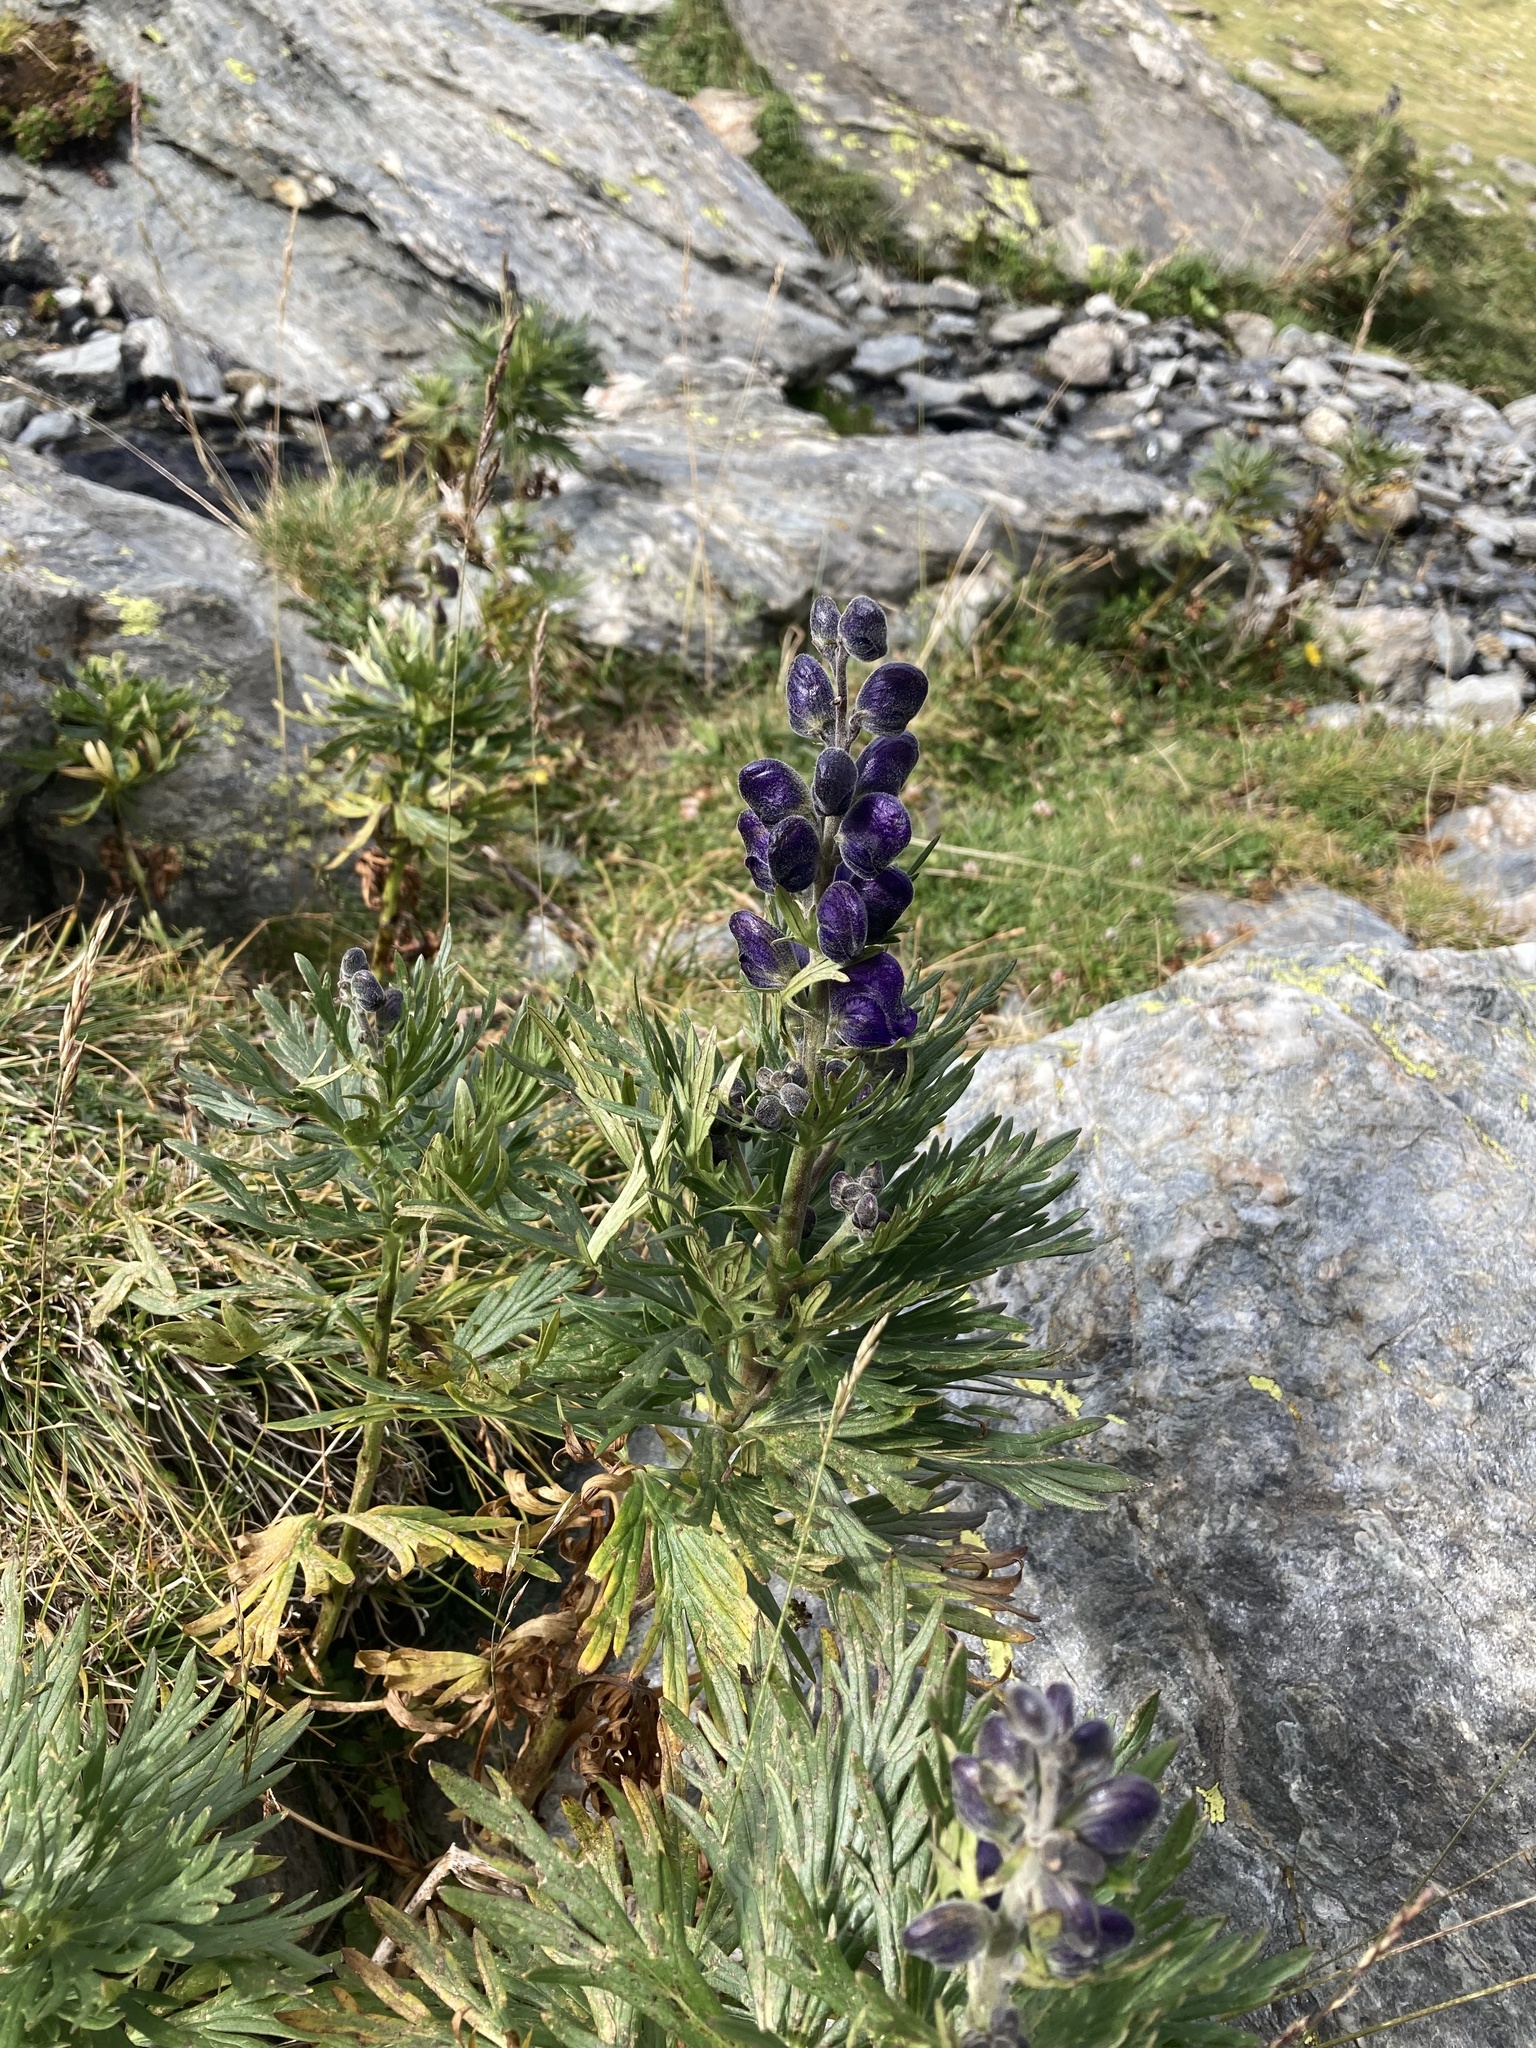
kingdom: Plantae
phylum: Tracheophyta
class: Magnoliopsida
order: Ranunculales
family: Ranunculaceae
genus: Aconitum
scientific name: Aconitum napellus
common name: Garden monkshood
